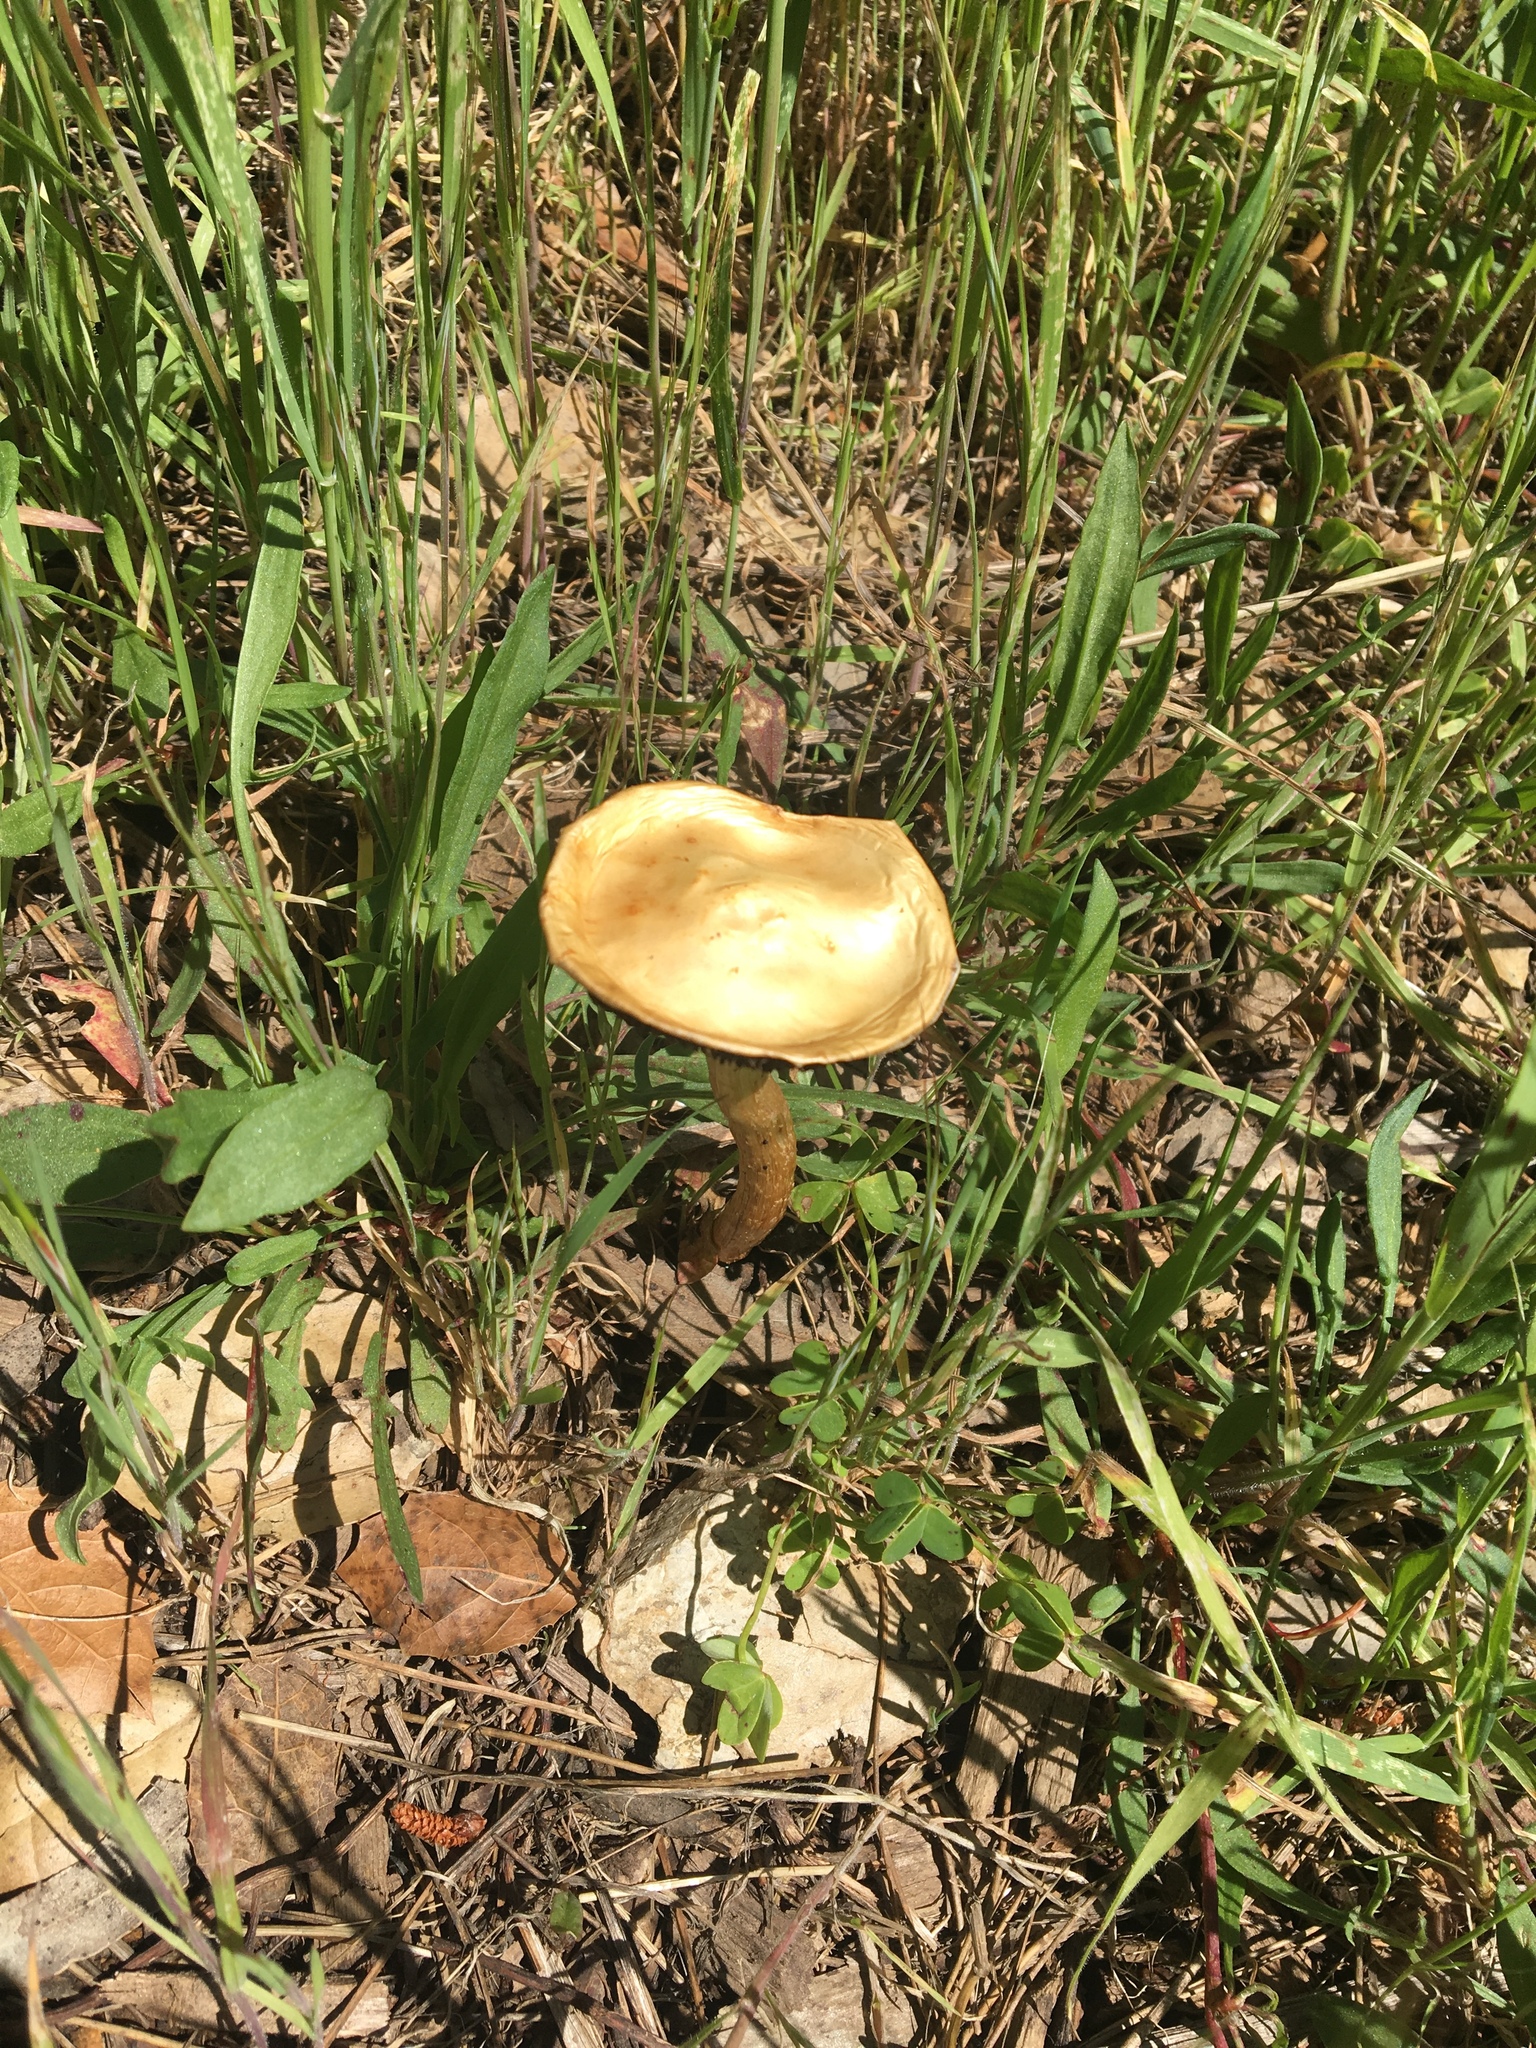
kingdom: Fungi
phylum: Basidiomycota
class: Agaricomycetes
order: Agaricales
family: Strophariaceae
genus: Leratiomyces
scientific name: Leratiomyces percevalii
